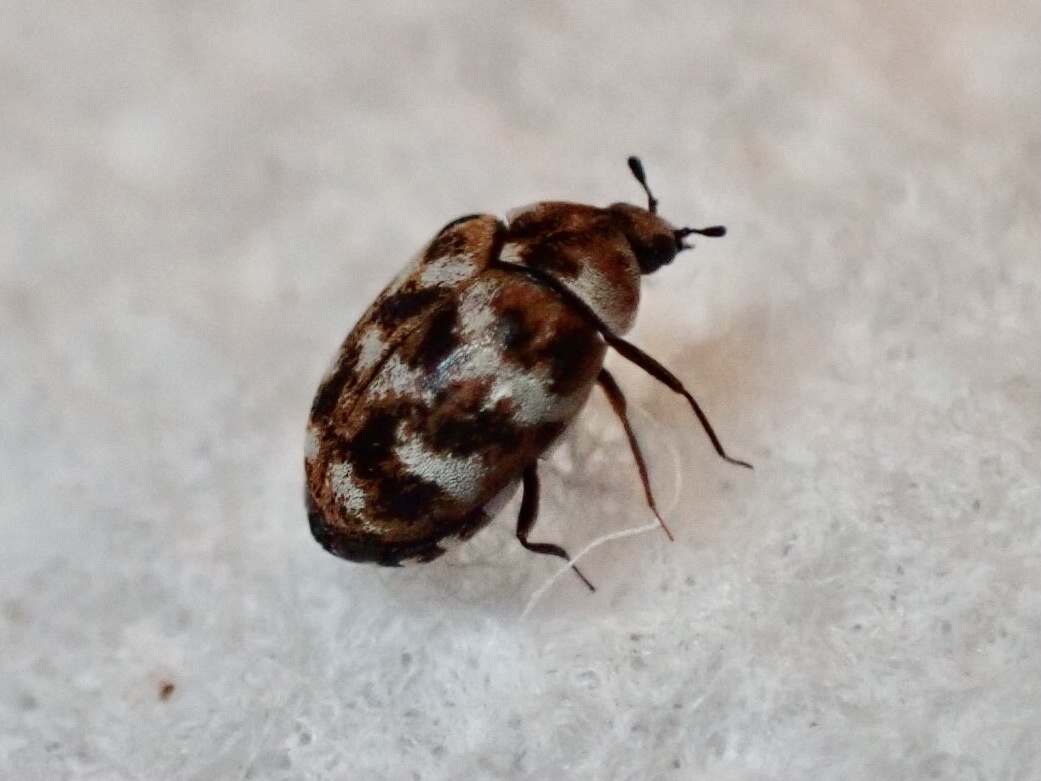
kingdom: Animalia
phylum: Arthropoda
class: Insecta
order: Coleoptera
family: Dermestidae
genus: Anthrenus
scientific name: Anthrenus verbasci
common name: Varied carpet beetle
